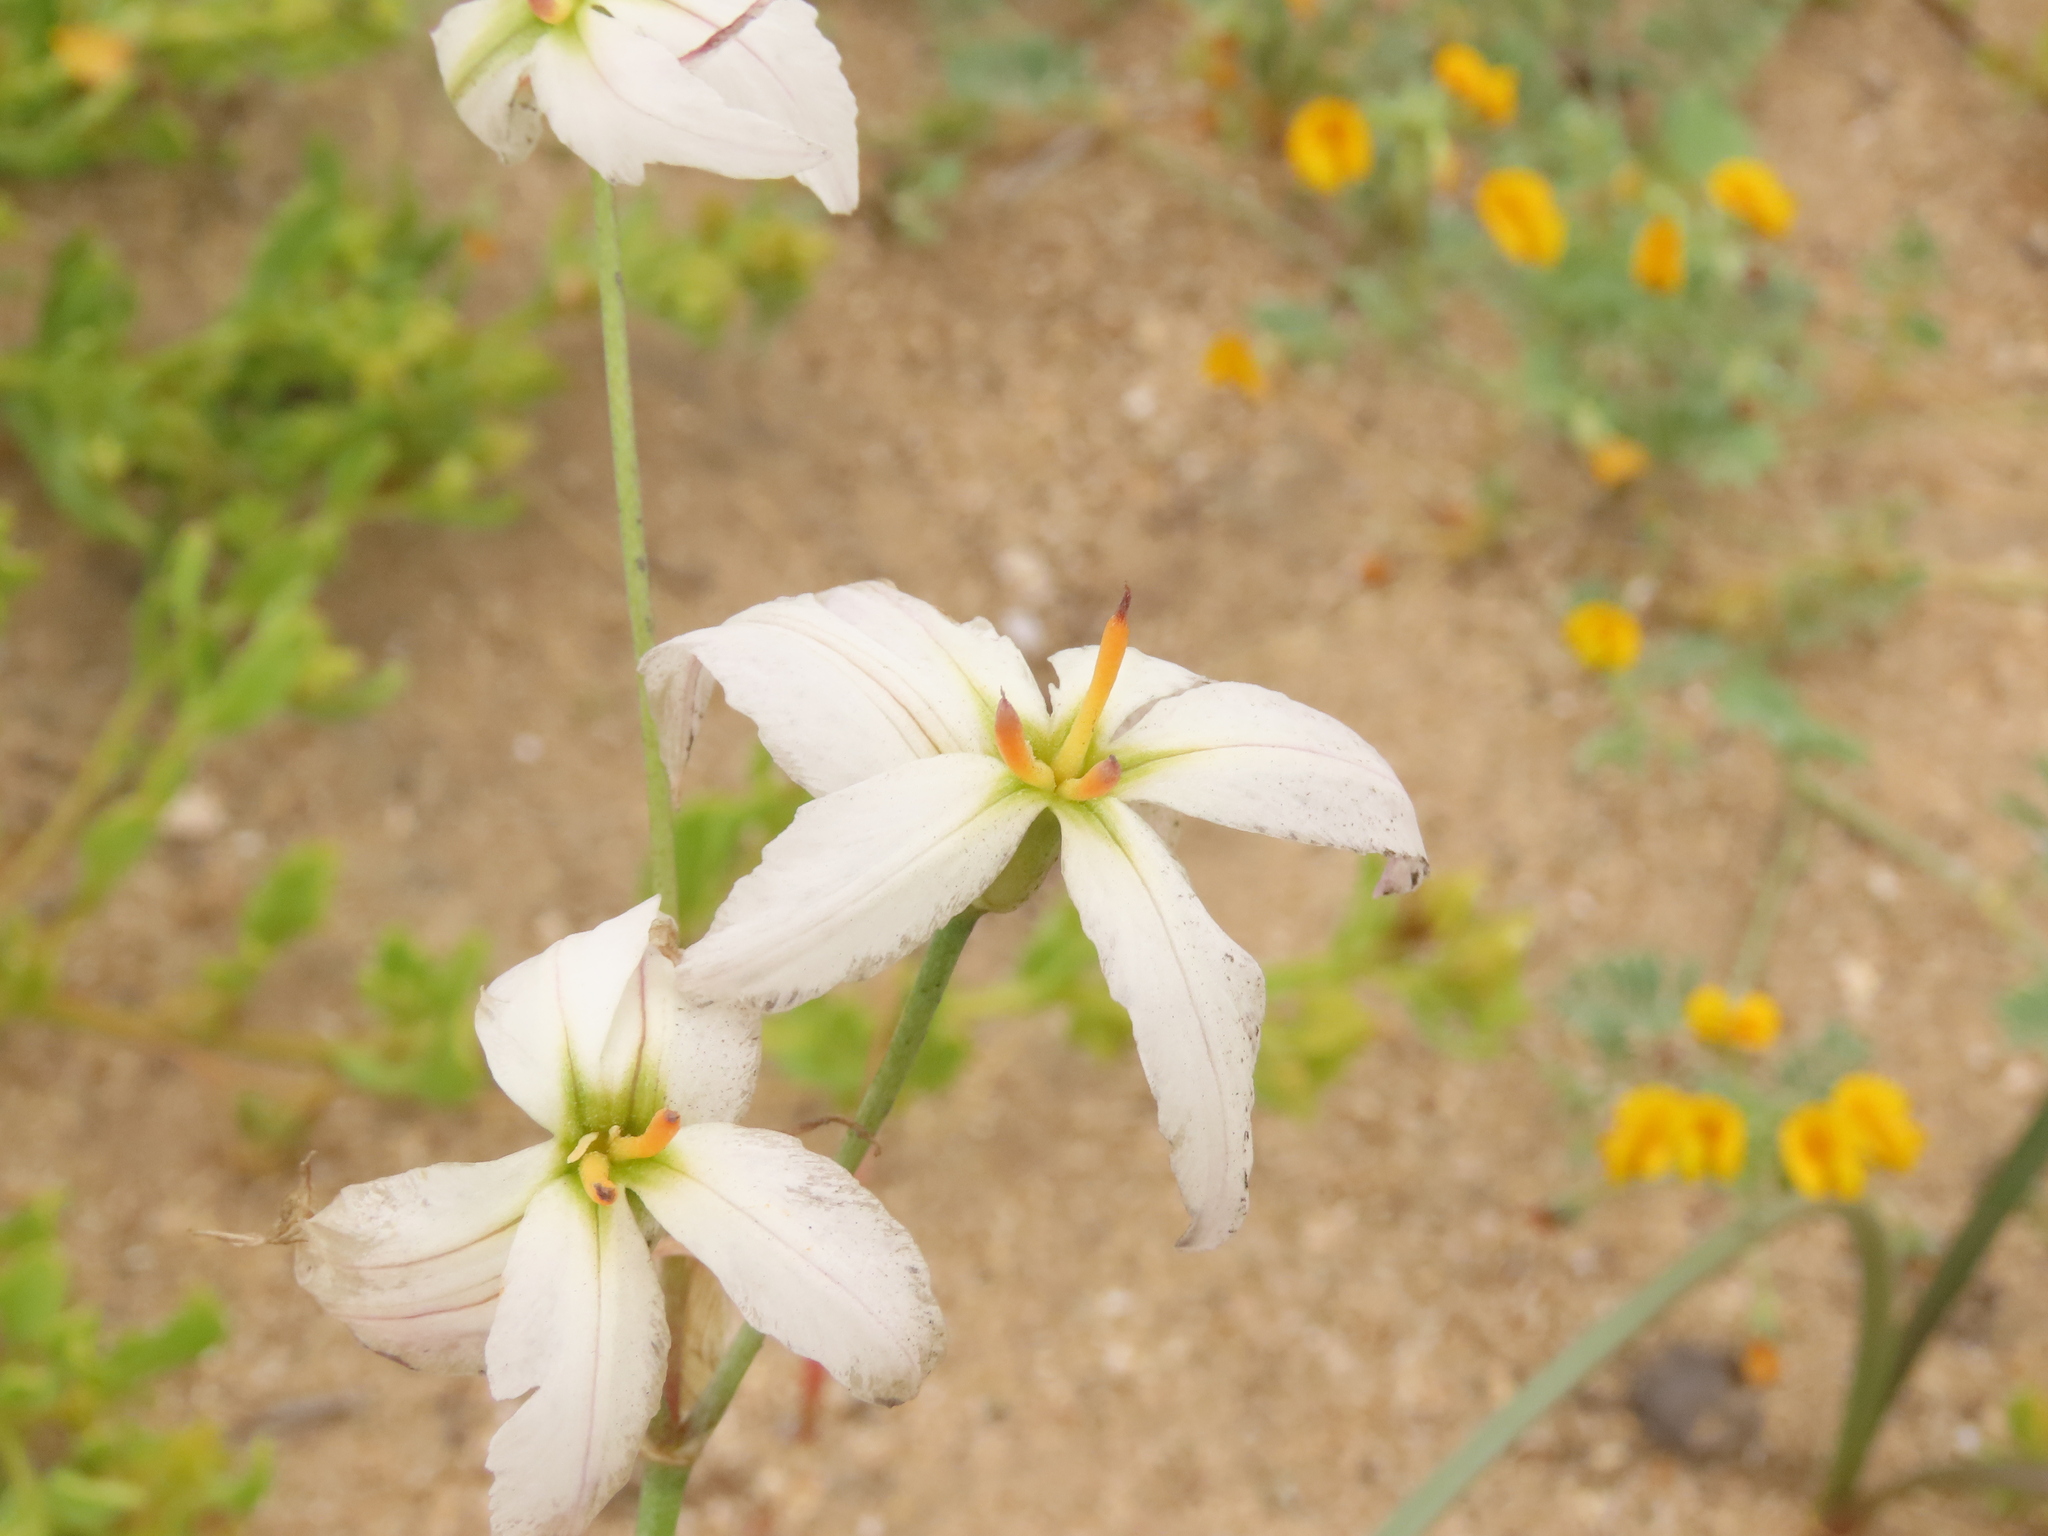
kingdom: Plantae
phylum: Tracheophyta
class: Liliopsida
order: Asparagales
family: Amaryllidaceae
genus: Leucocoryne
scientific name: Leucocoryne appendiculata
